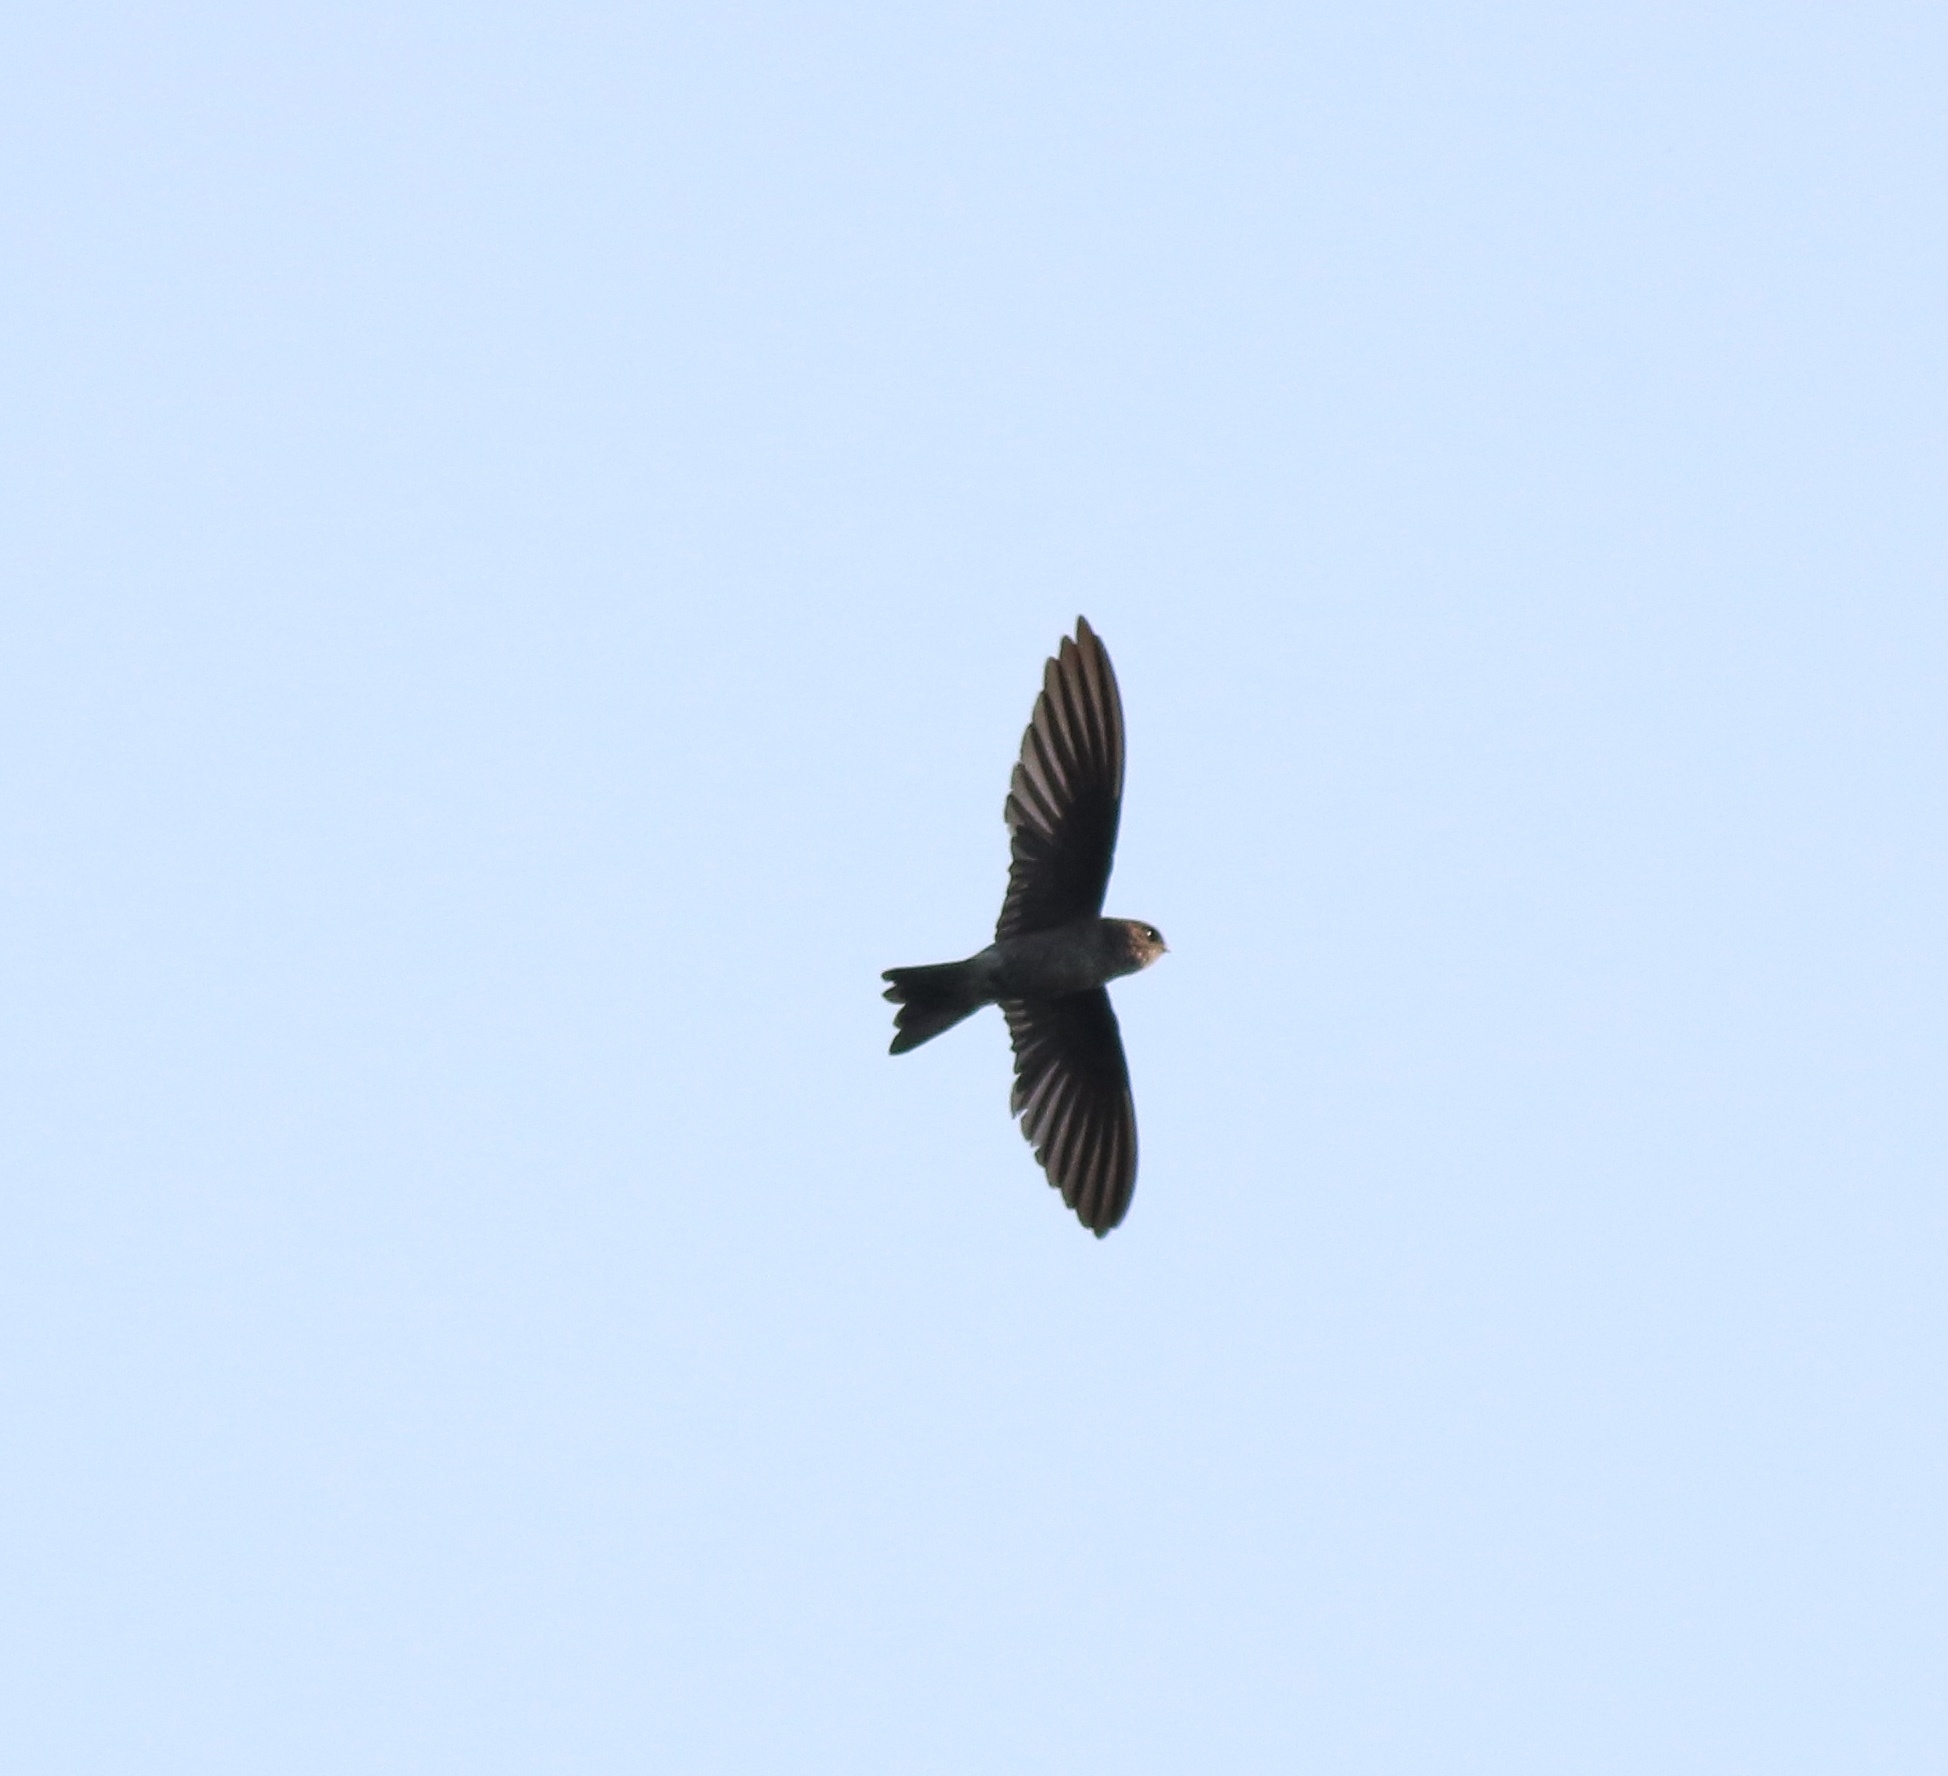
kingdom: Animalia
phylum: Chordata
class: Aves
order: Apodiformes
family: Apodidae
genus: Aerodramus
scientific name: Aerodramus unicolor
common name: Indian swiftlet
